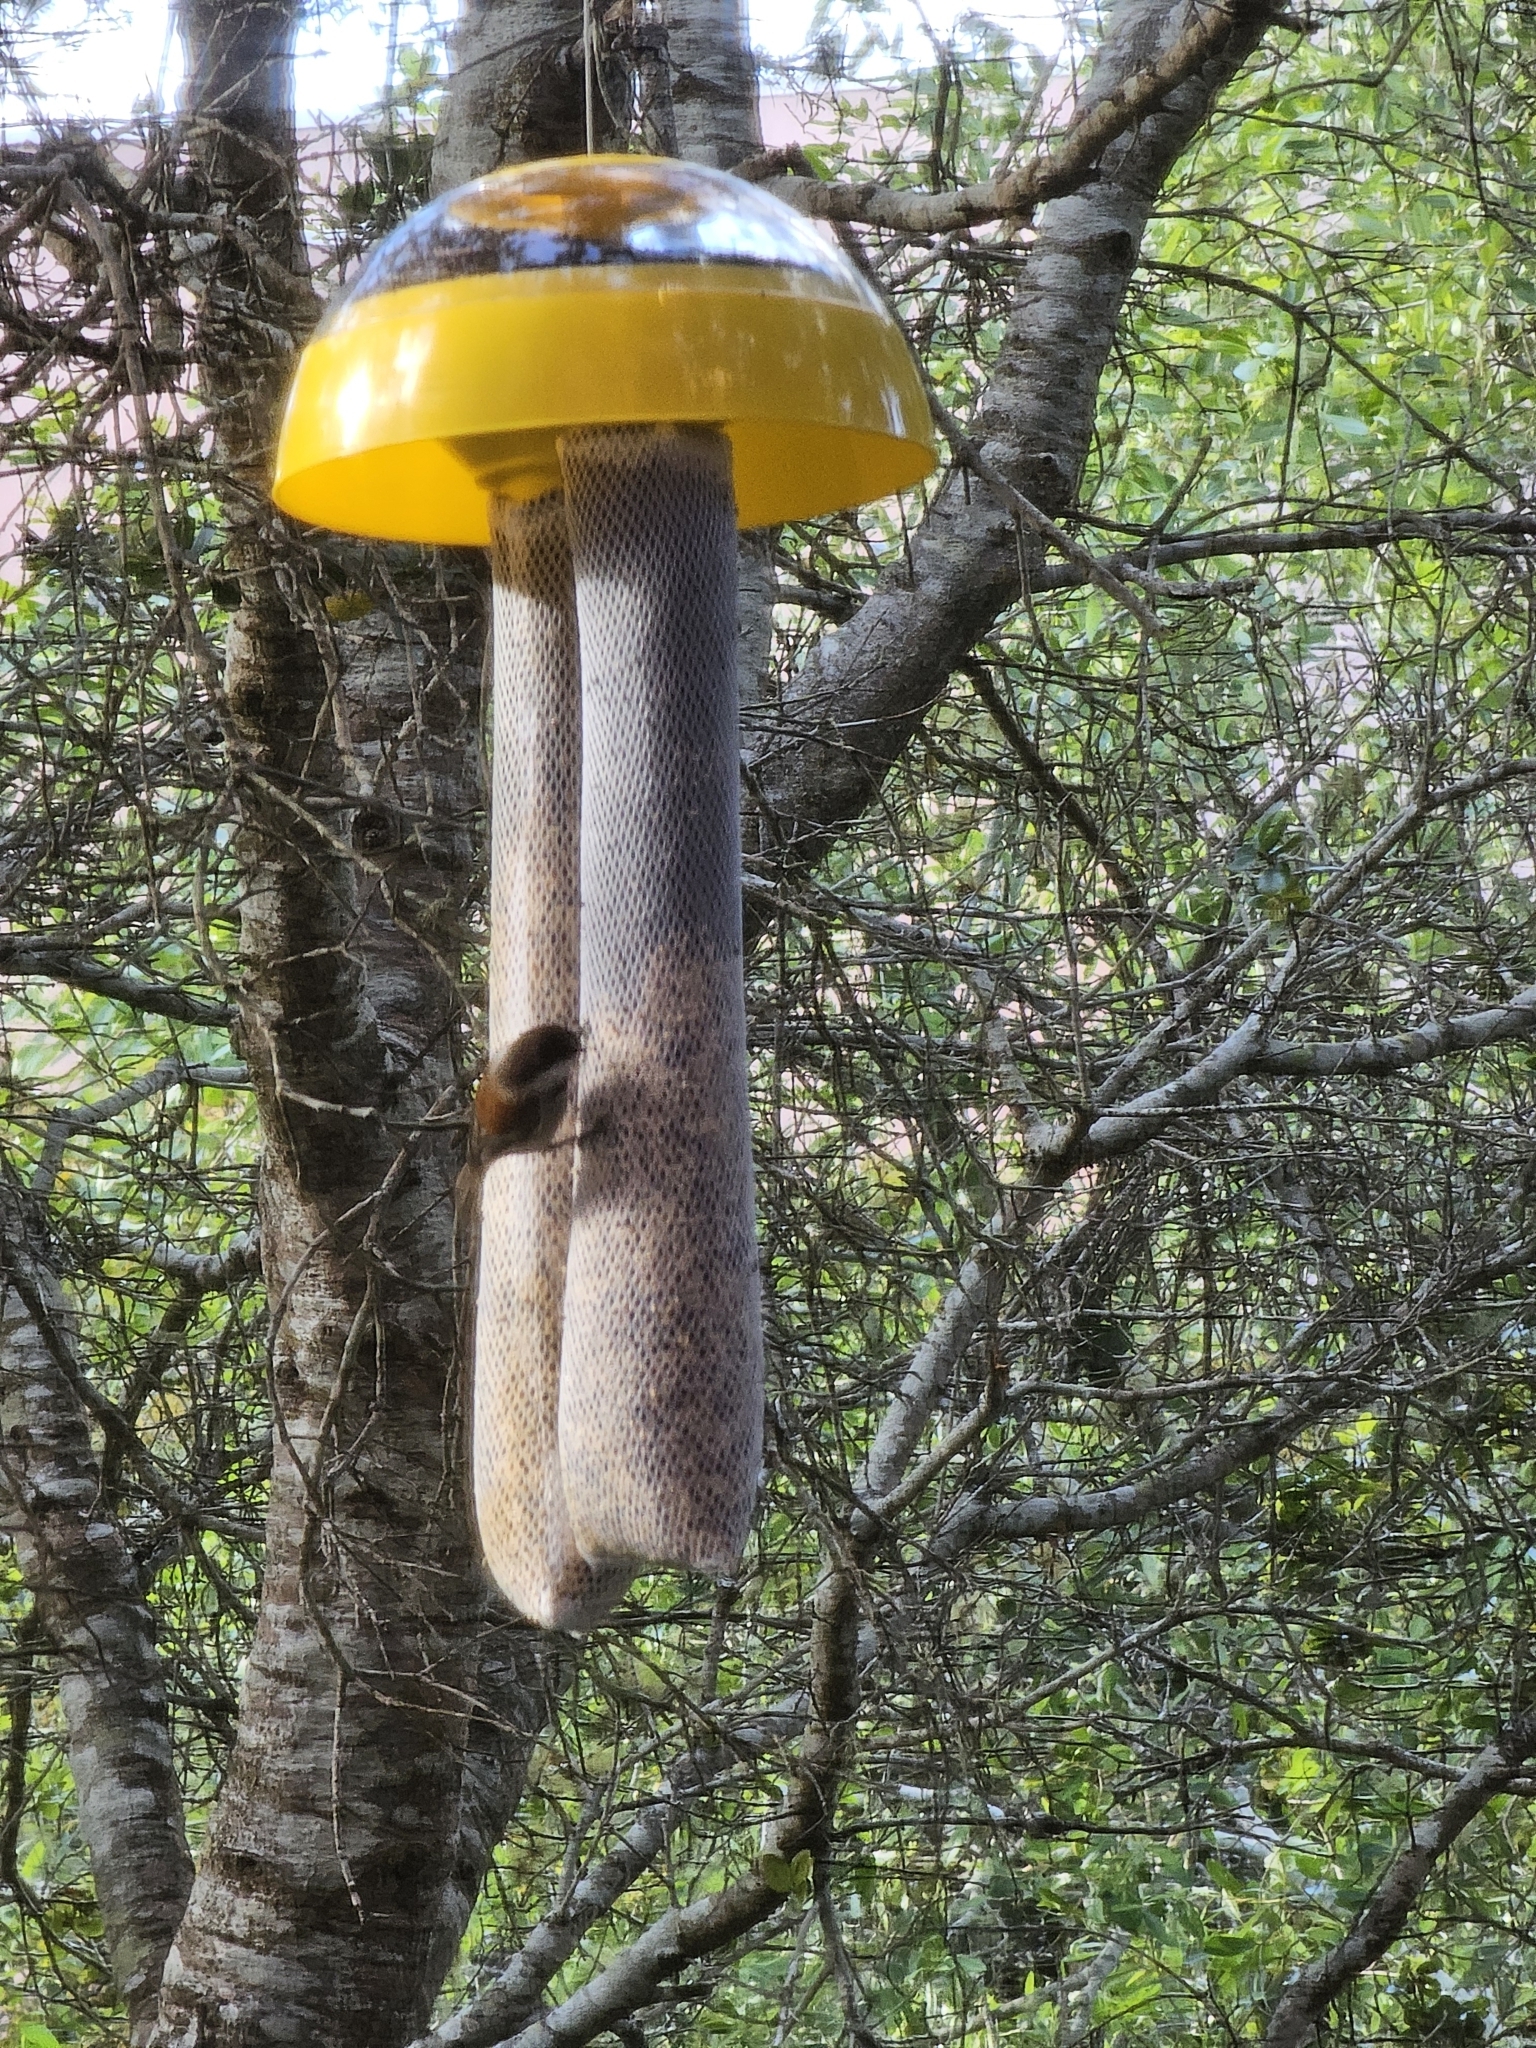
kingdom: Animalia
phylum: Chordata
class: Aves
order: Passeriformes
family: Paridae
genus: Poecile
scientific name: Poecile rufescens
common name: Chestnut-backed chickadee
